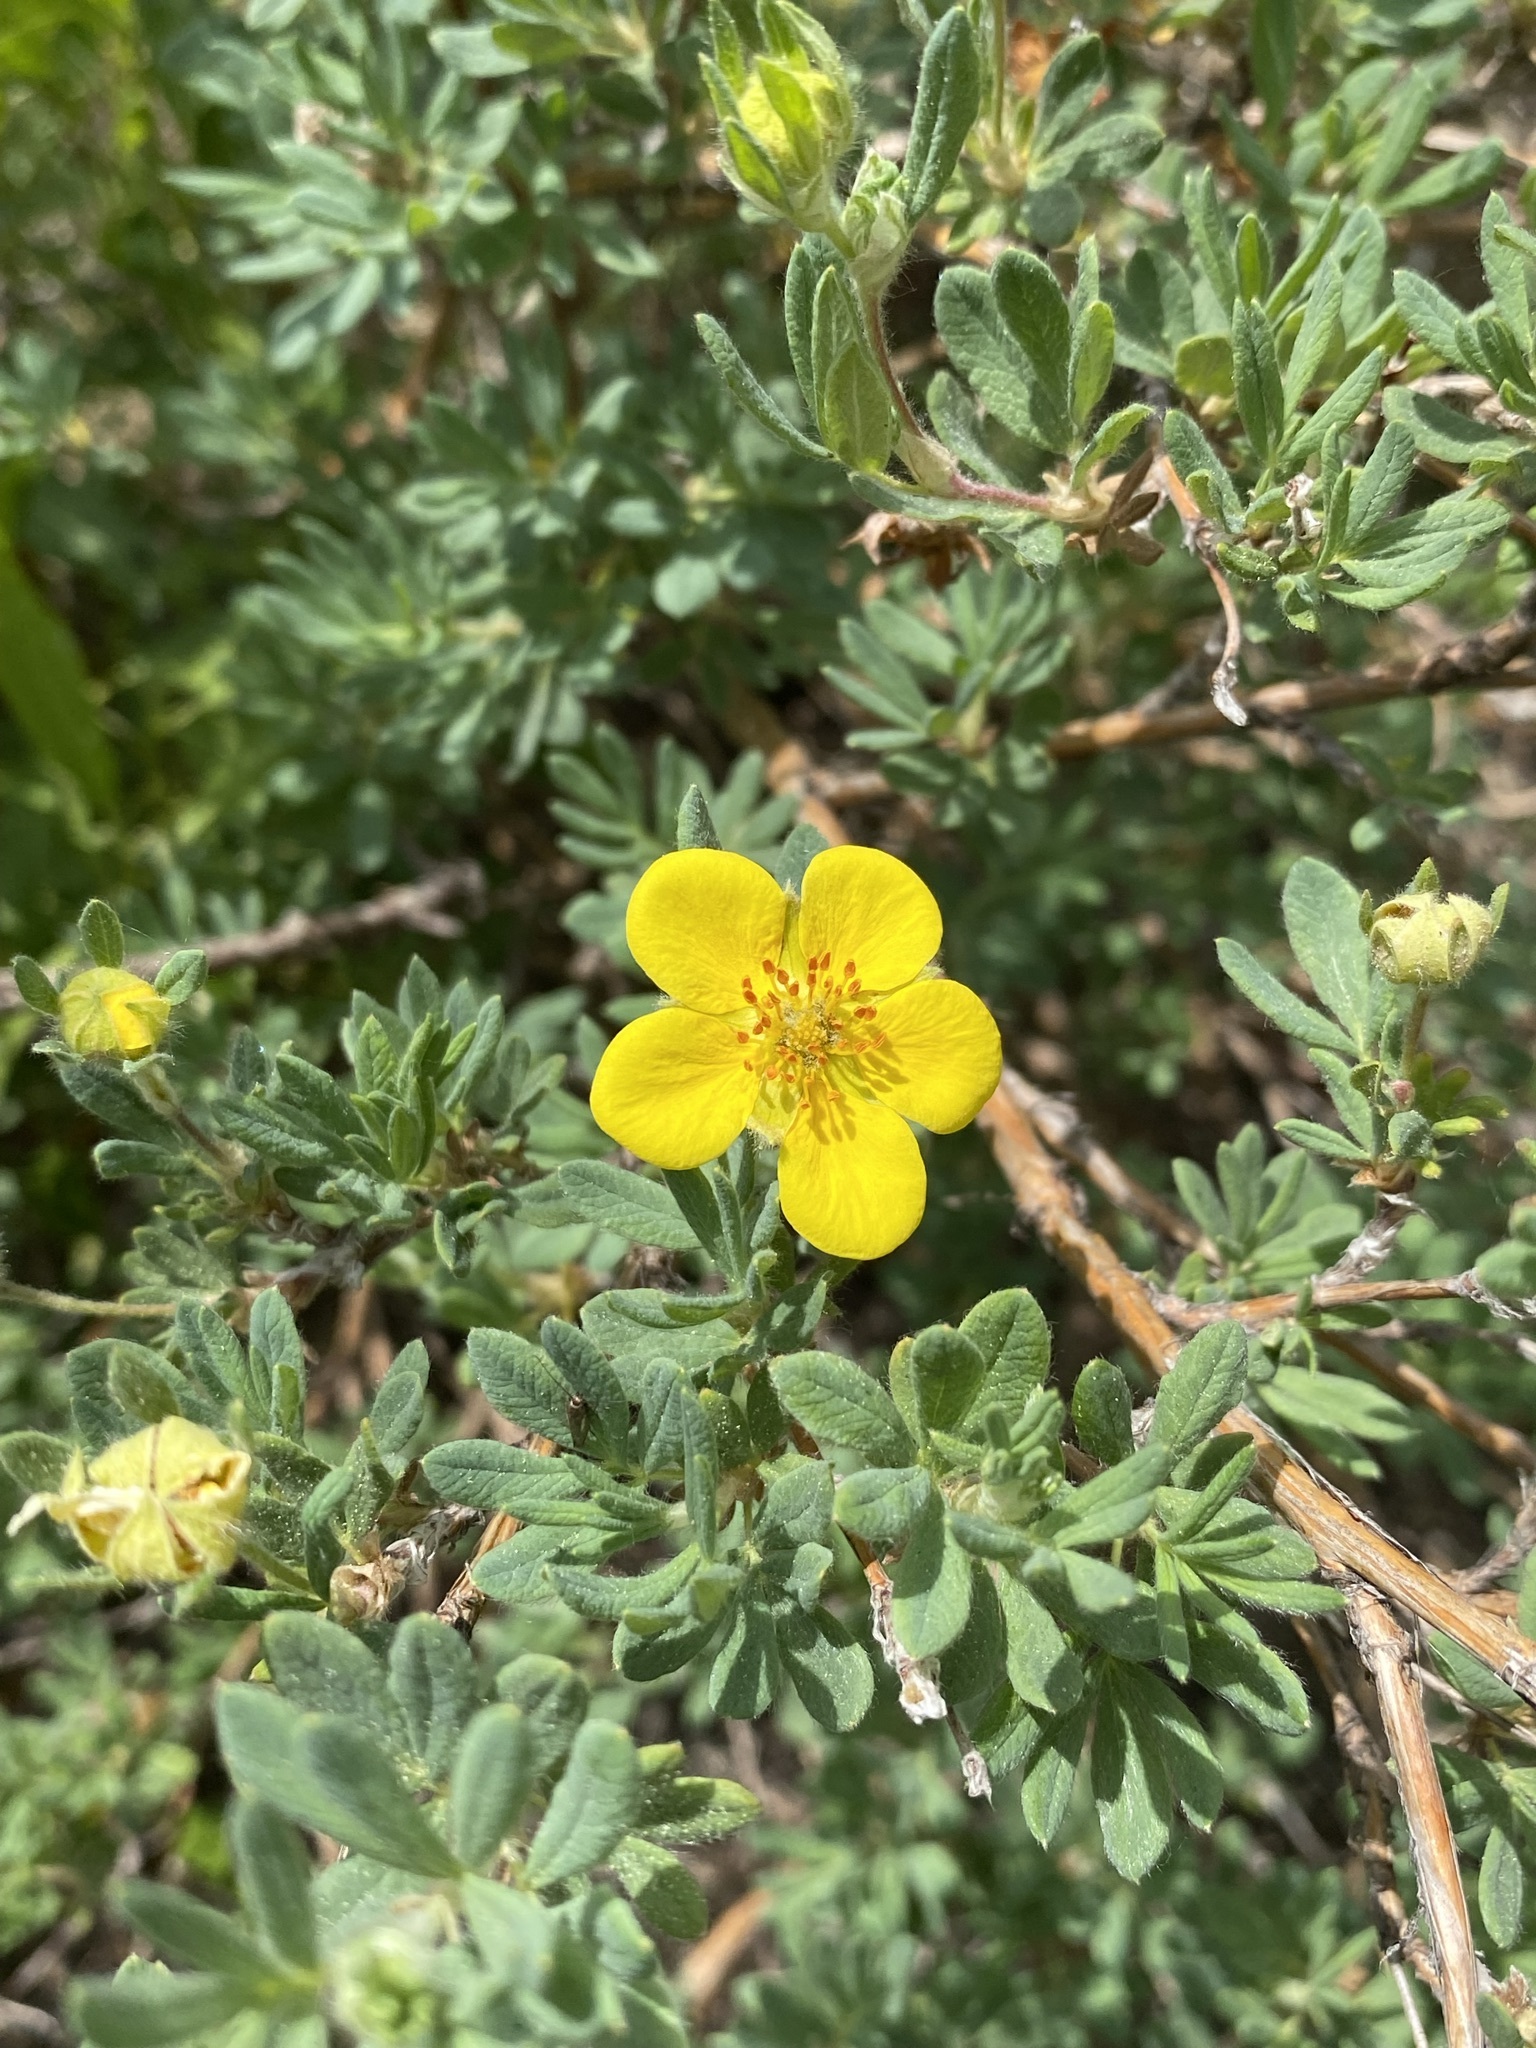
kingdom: Plantae
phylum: Tracheophyta
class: Magnoliopsida
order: Rosales
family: Rosaceae
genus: Dasiphora
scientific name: Dasiphora fruticosa
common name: Shrubby cinquefoil
